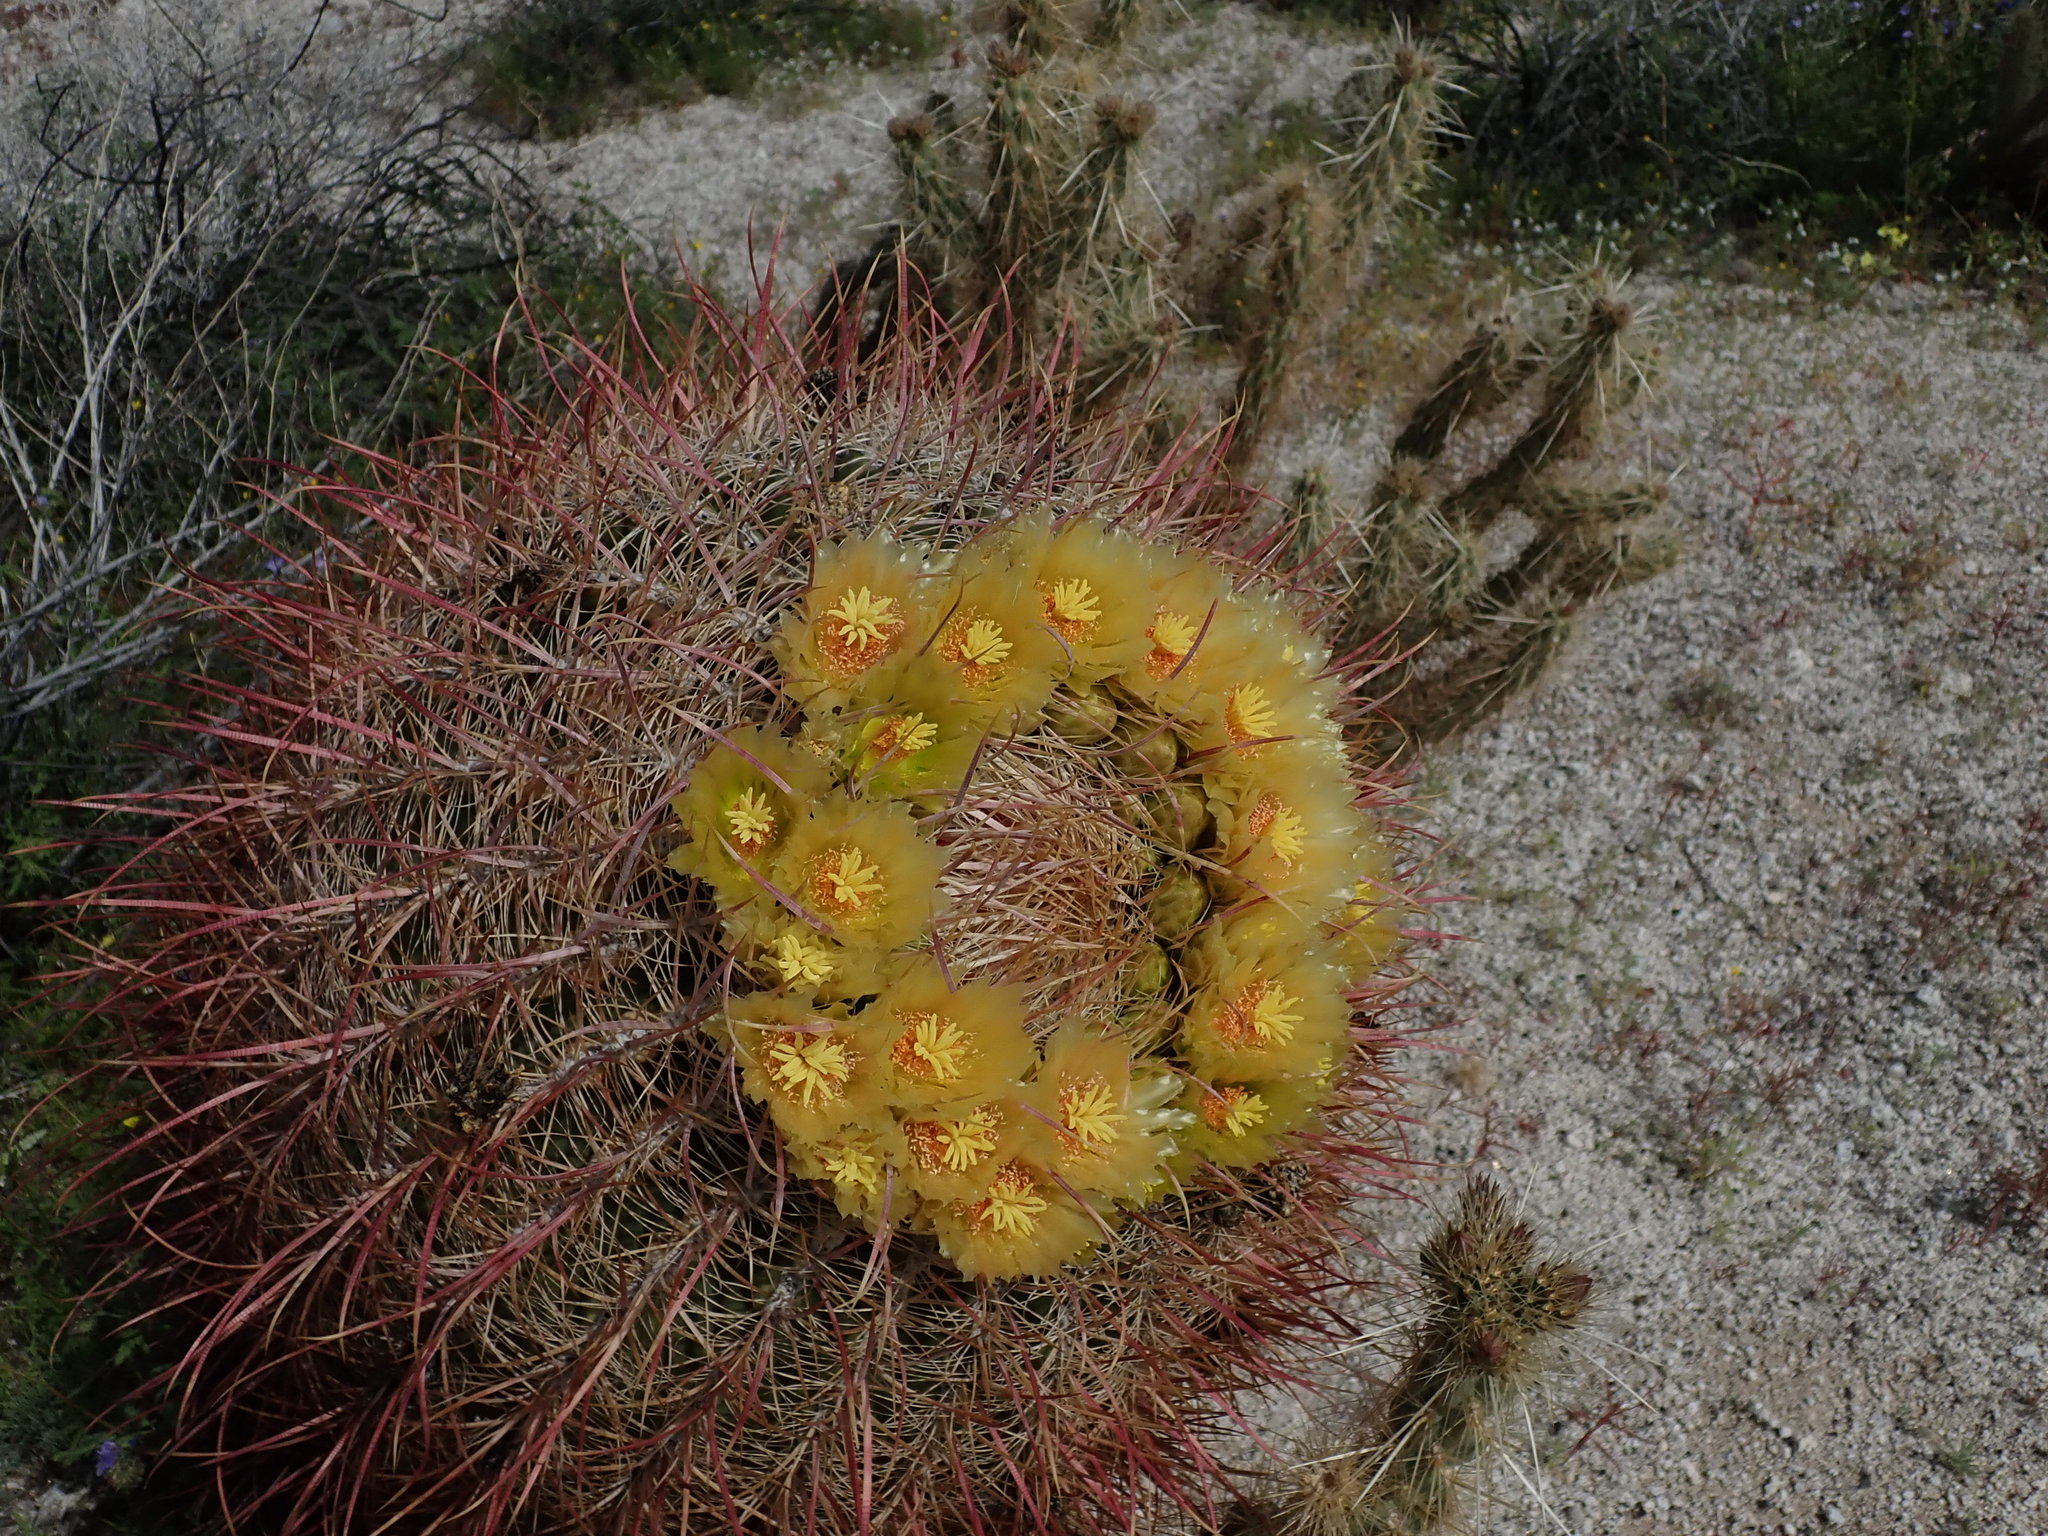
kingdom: Plantae
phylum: Tracheophyta
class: Magnoliopsida
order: Caryophyllales
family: Cactaceae
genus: Ferocactus
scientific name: Ferocactus cylindraceus
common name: California barrel cactus
